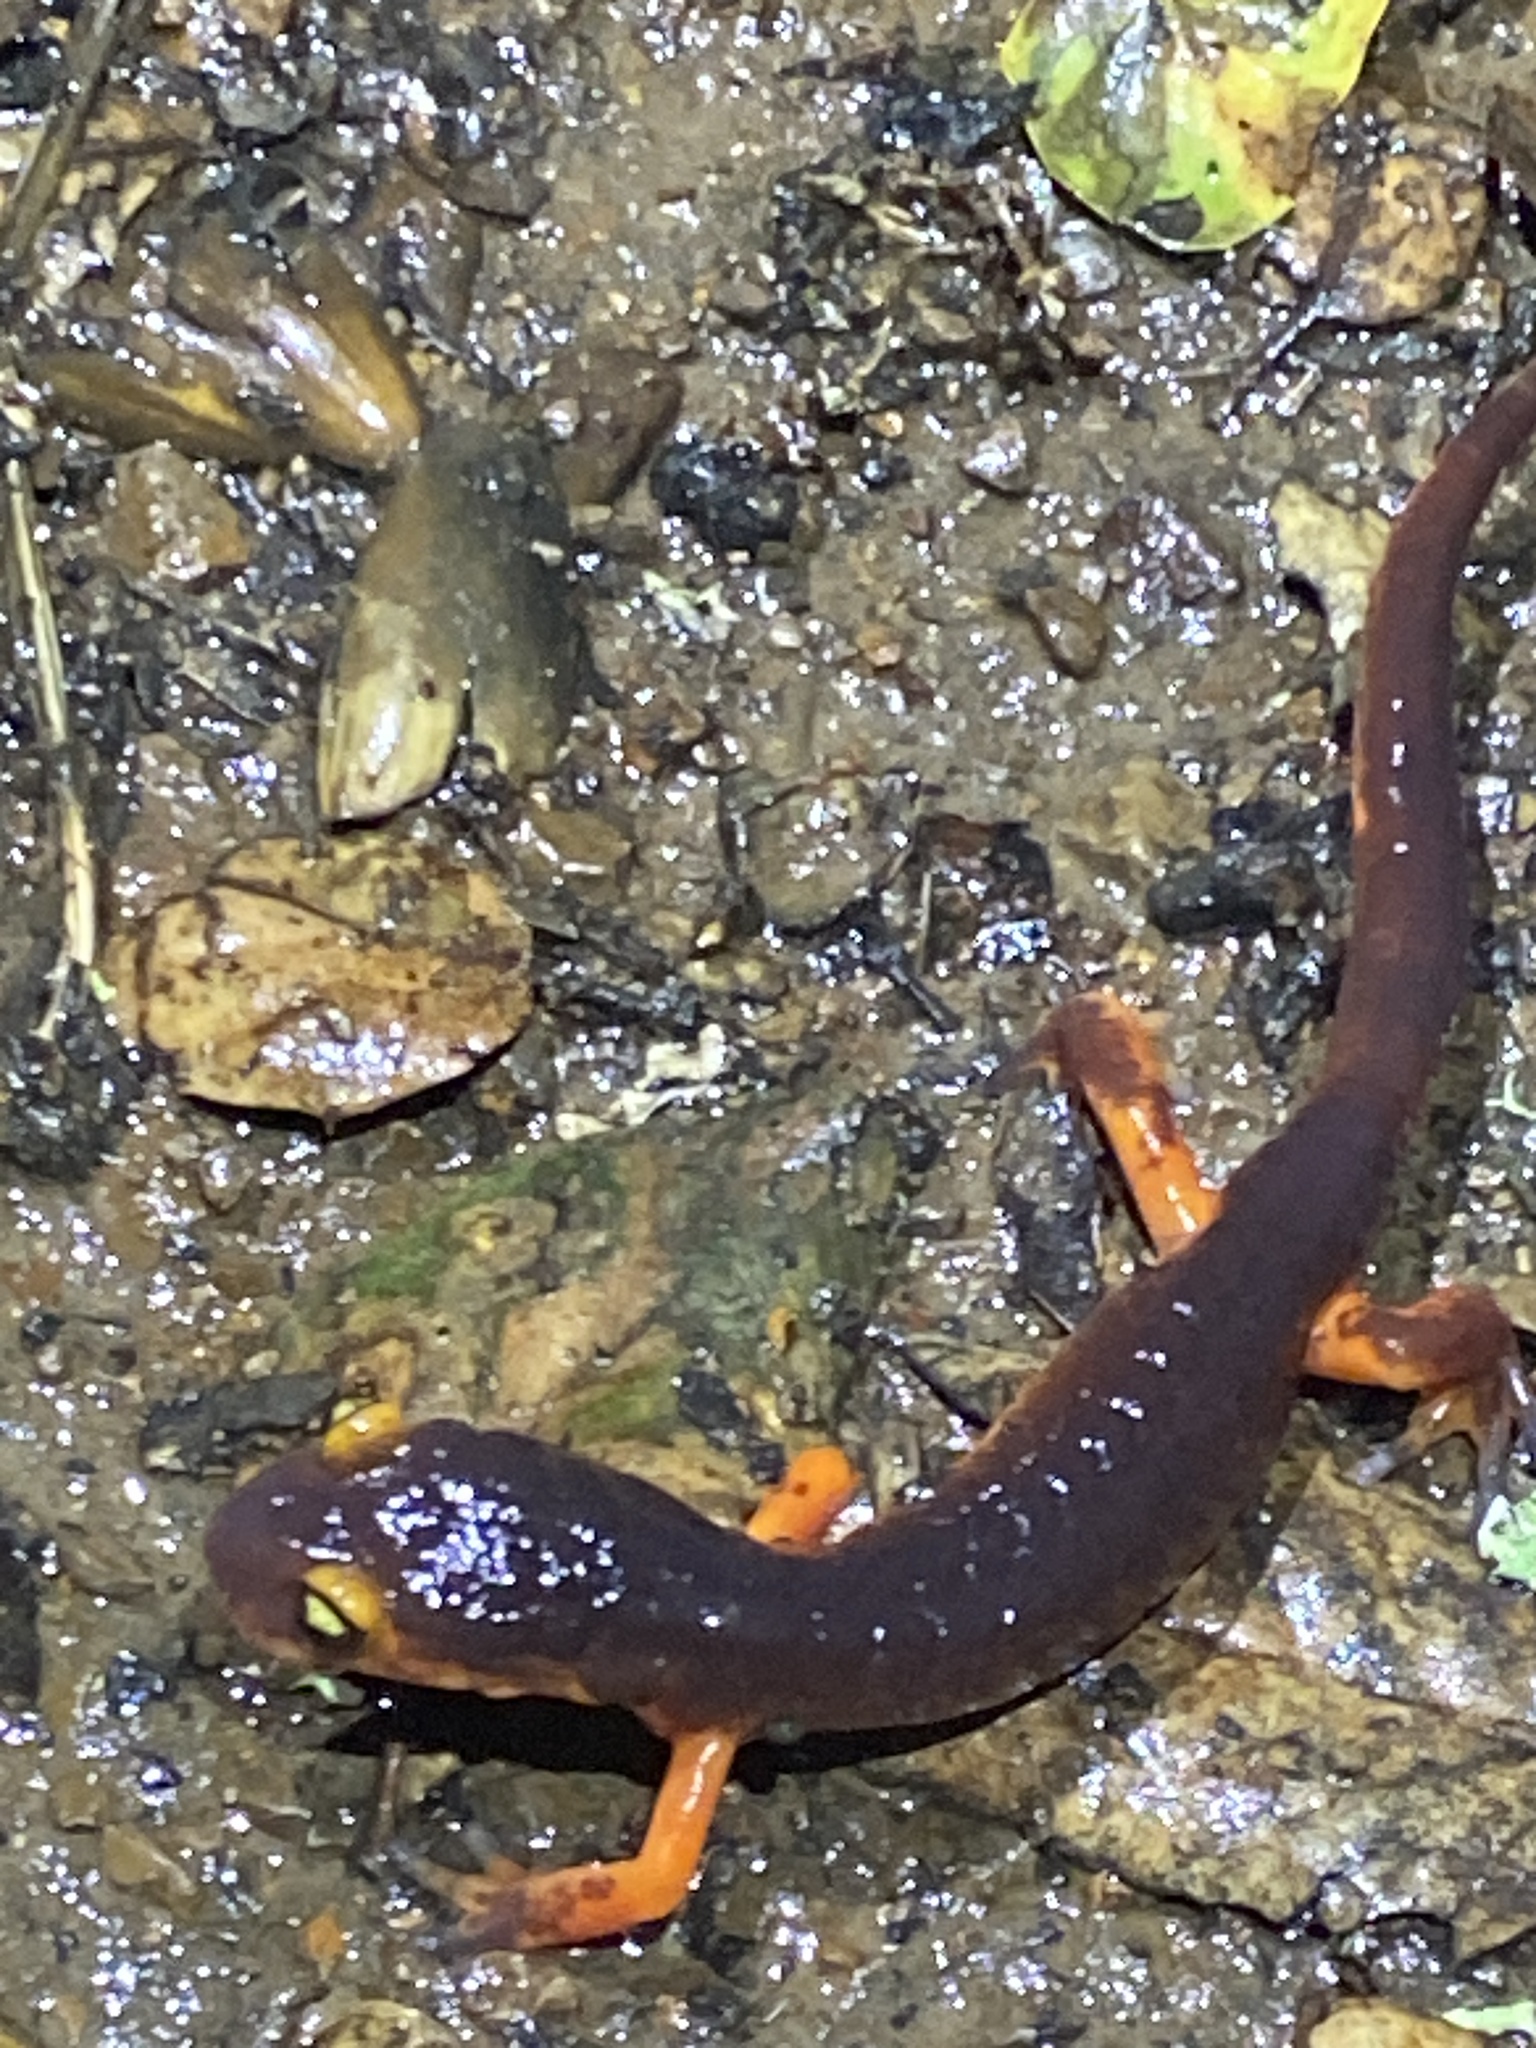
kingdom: Animalia
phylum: Chordata
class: Amphibia
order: Caudata
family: Plethodontidae
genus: Ensatina
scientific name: Ensatina eschscholtzii
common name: Ensatina
